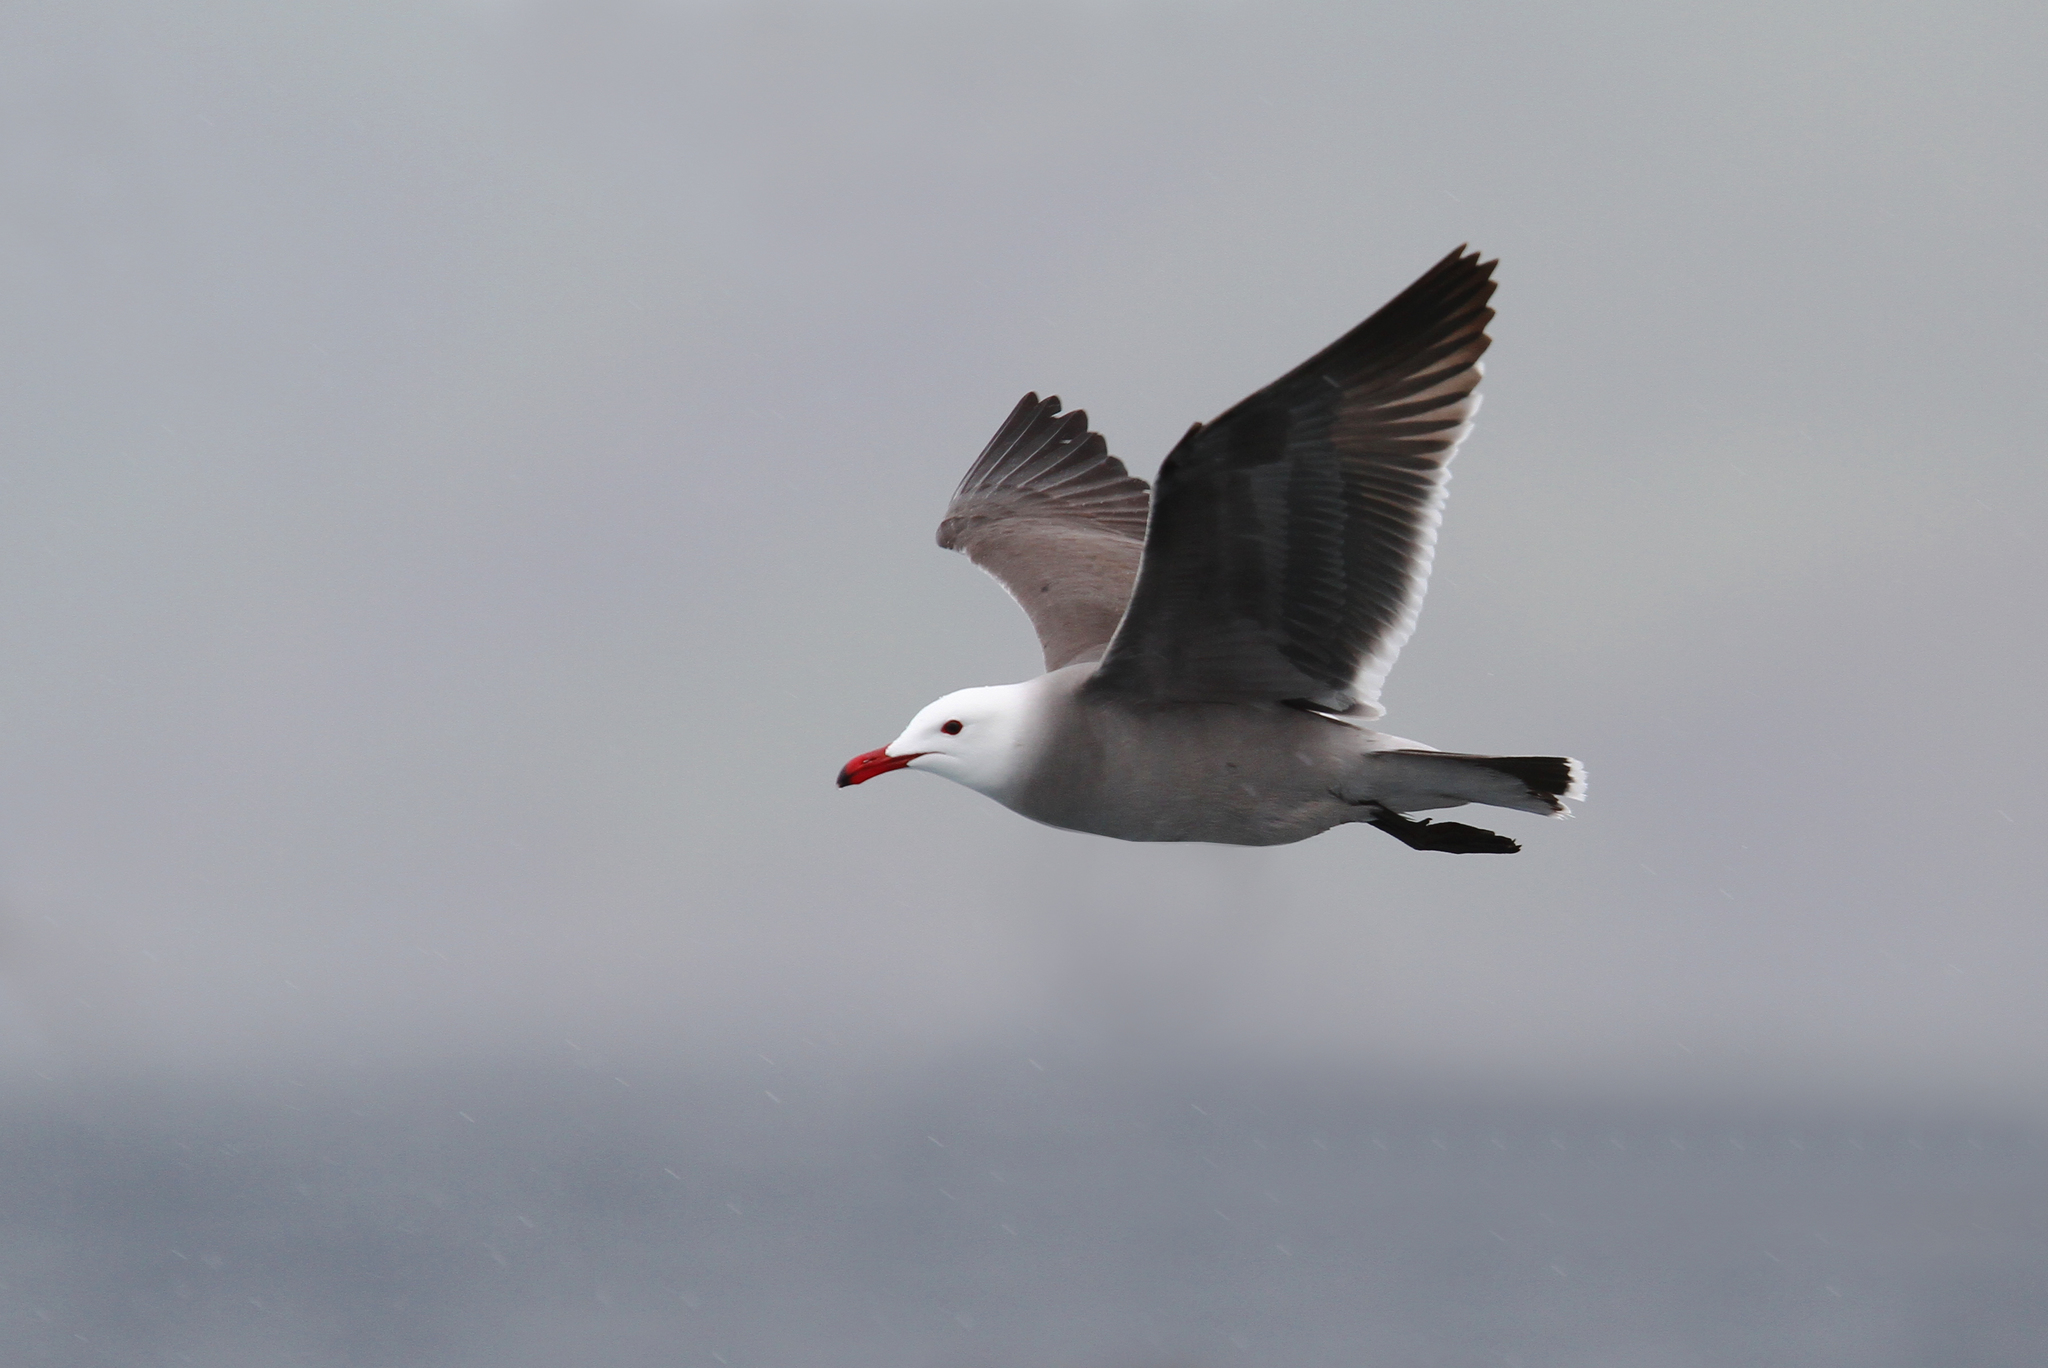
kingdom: Animalia
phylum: Chordata
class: Aves
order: Charadriiformes
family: Laridae
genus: Larus
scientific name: Larus heermanni
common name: Heermann's gull
